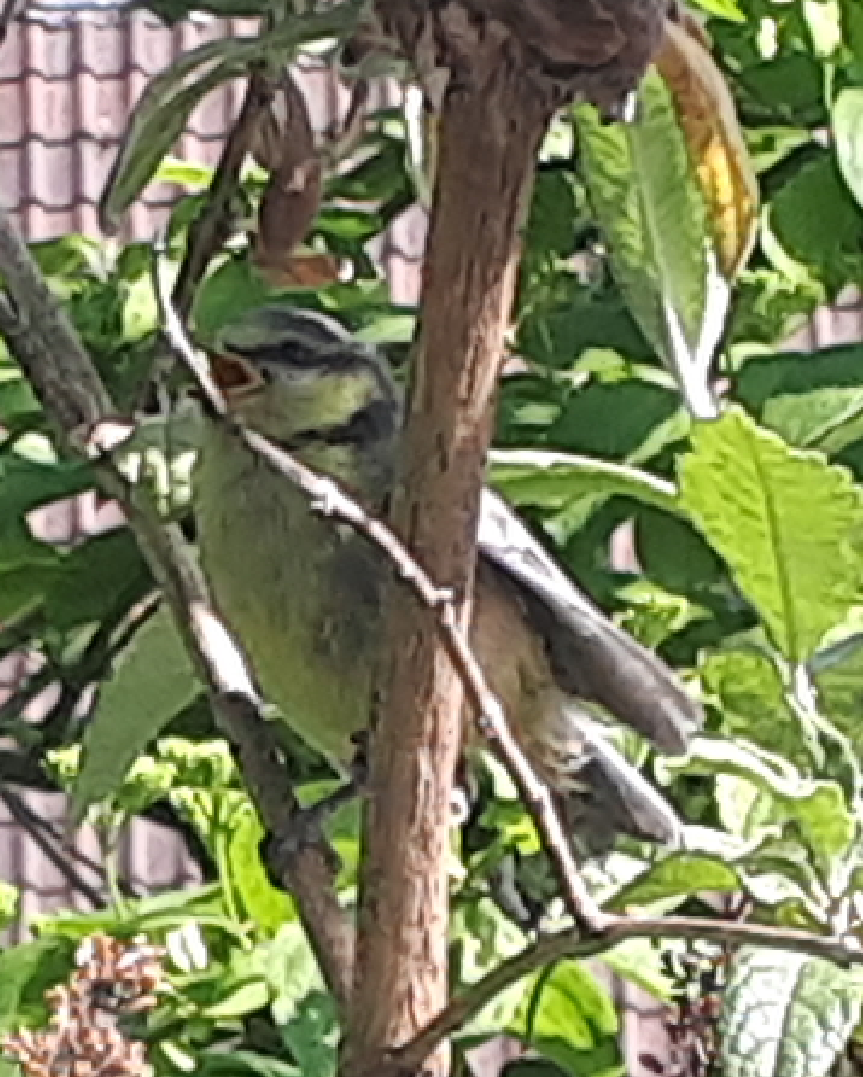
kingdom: Animalia
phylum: Chordata
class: Aves
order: Passeriformes
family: Paridae
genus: Cyanistes
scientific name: Cyanistes caeruleus
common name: Eurasian blue tit
